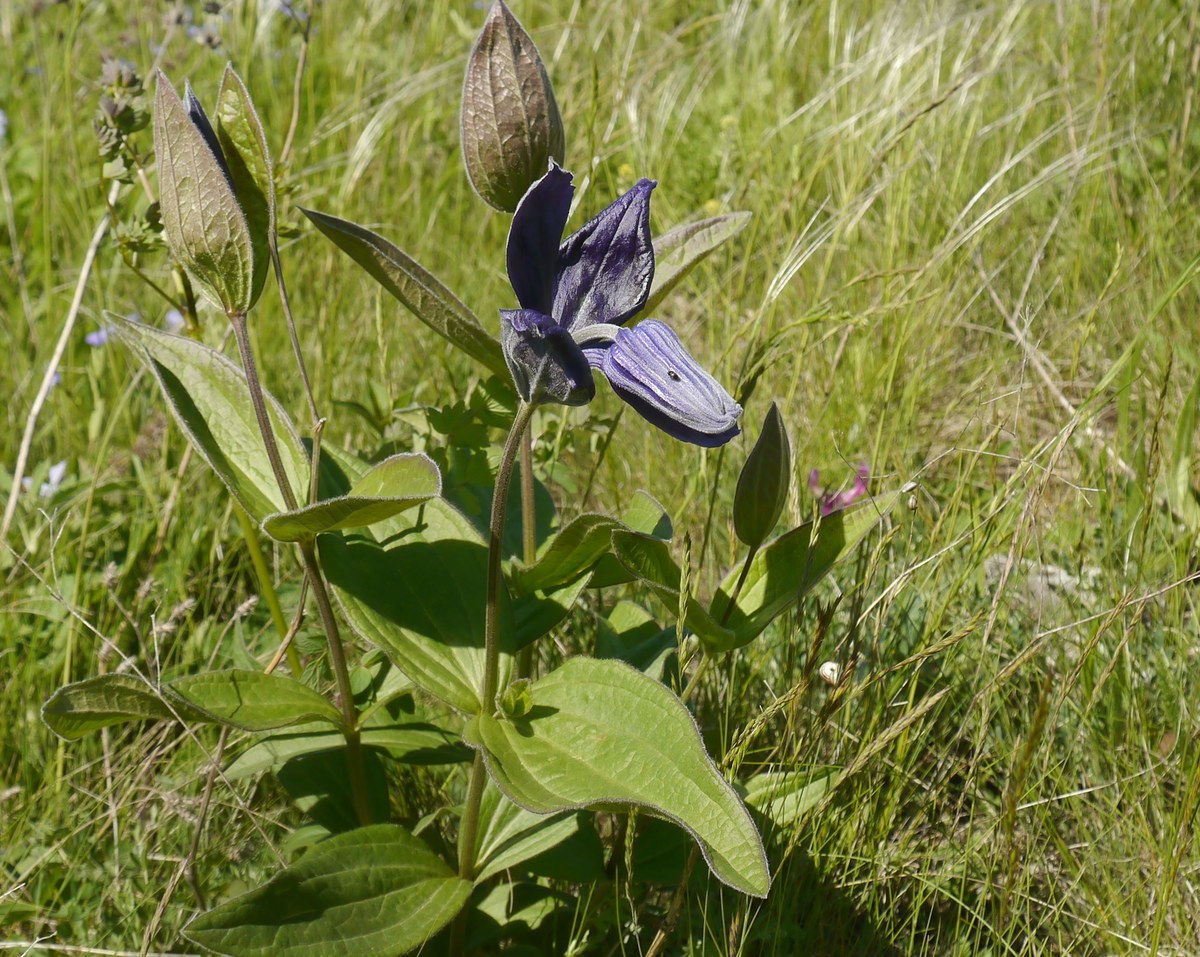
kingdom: Plantae
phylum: Tracheophyta
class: Magnoliopsida
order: Ranunculales
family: Ranunculaceae
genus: Clematis
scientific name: Clematis integrifolia
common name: Solitary clematis
